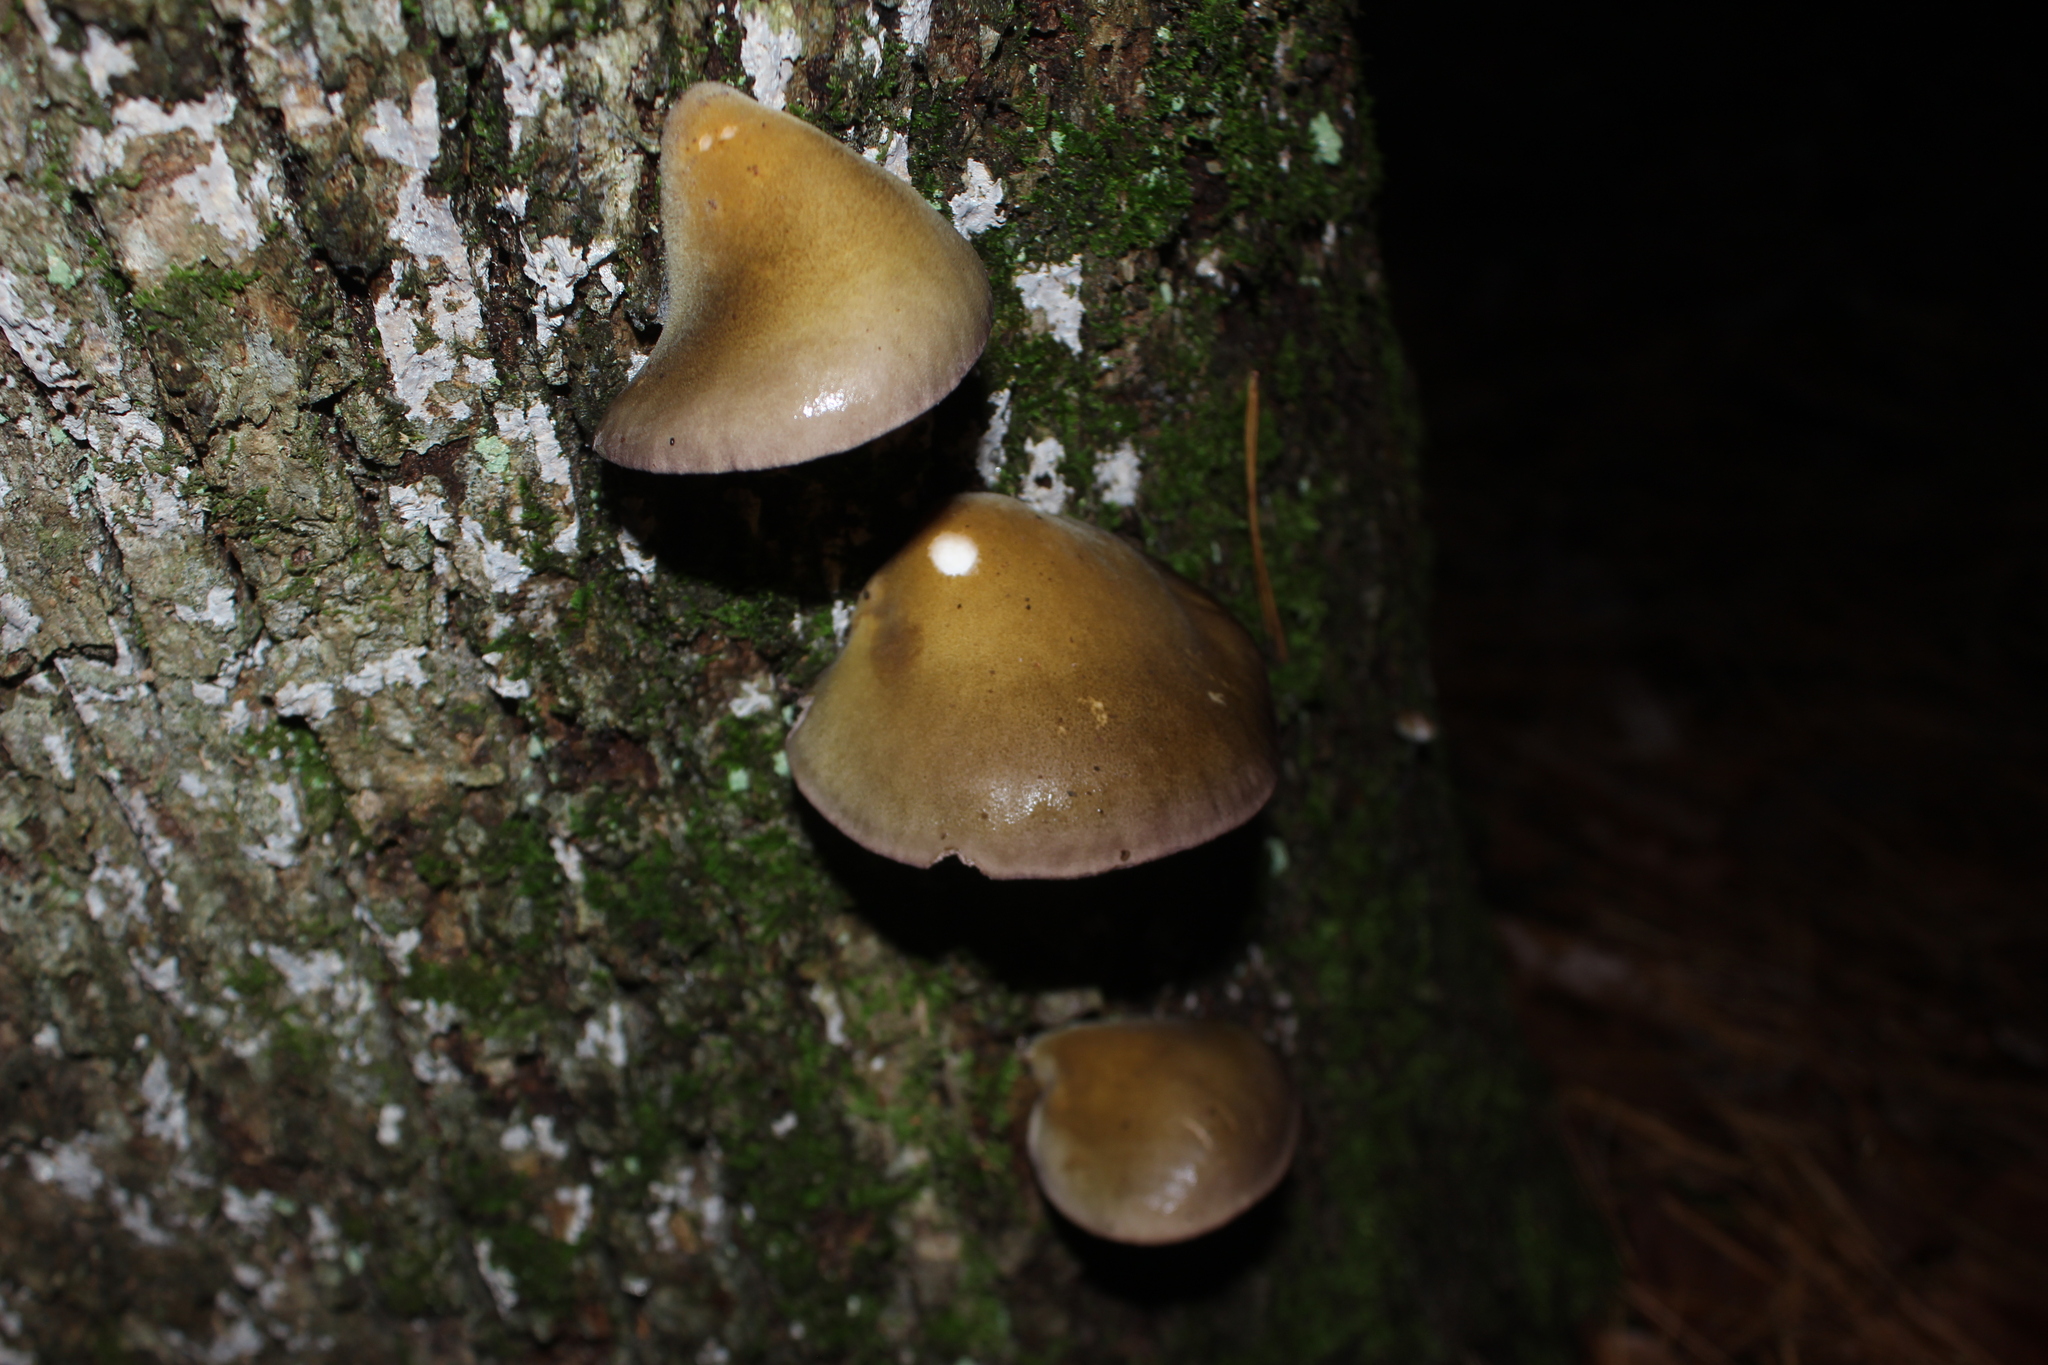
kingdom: Fungi
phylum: Basidiomycota
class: Agaricomycetes
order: Agaricales
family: Sarcomyxaceae
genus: Sarcomyxa
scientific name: Sarcomyxa serotina
